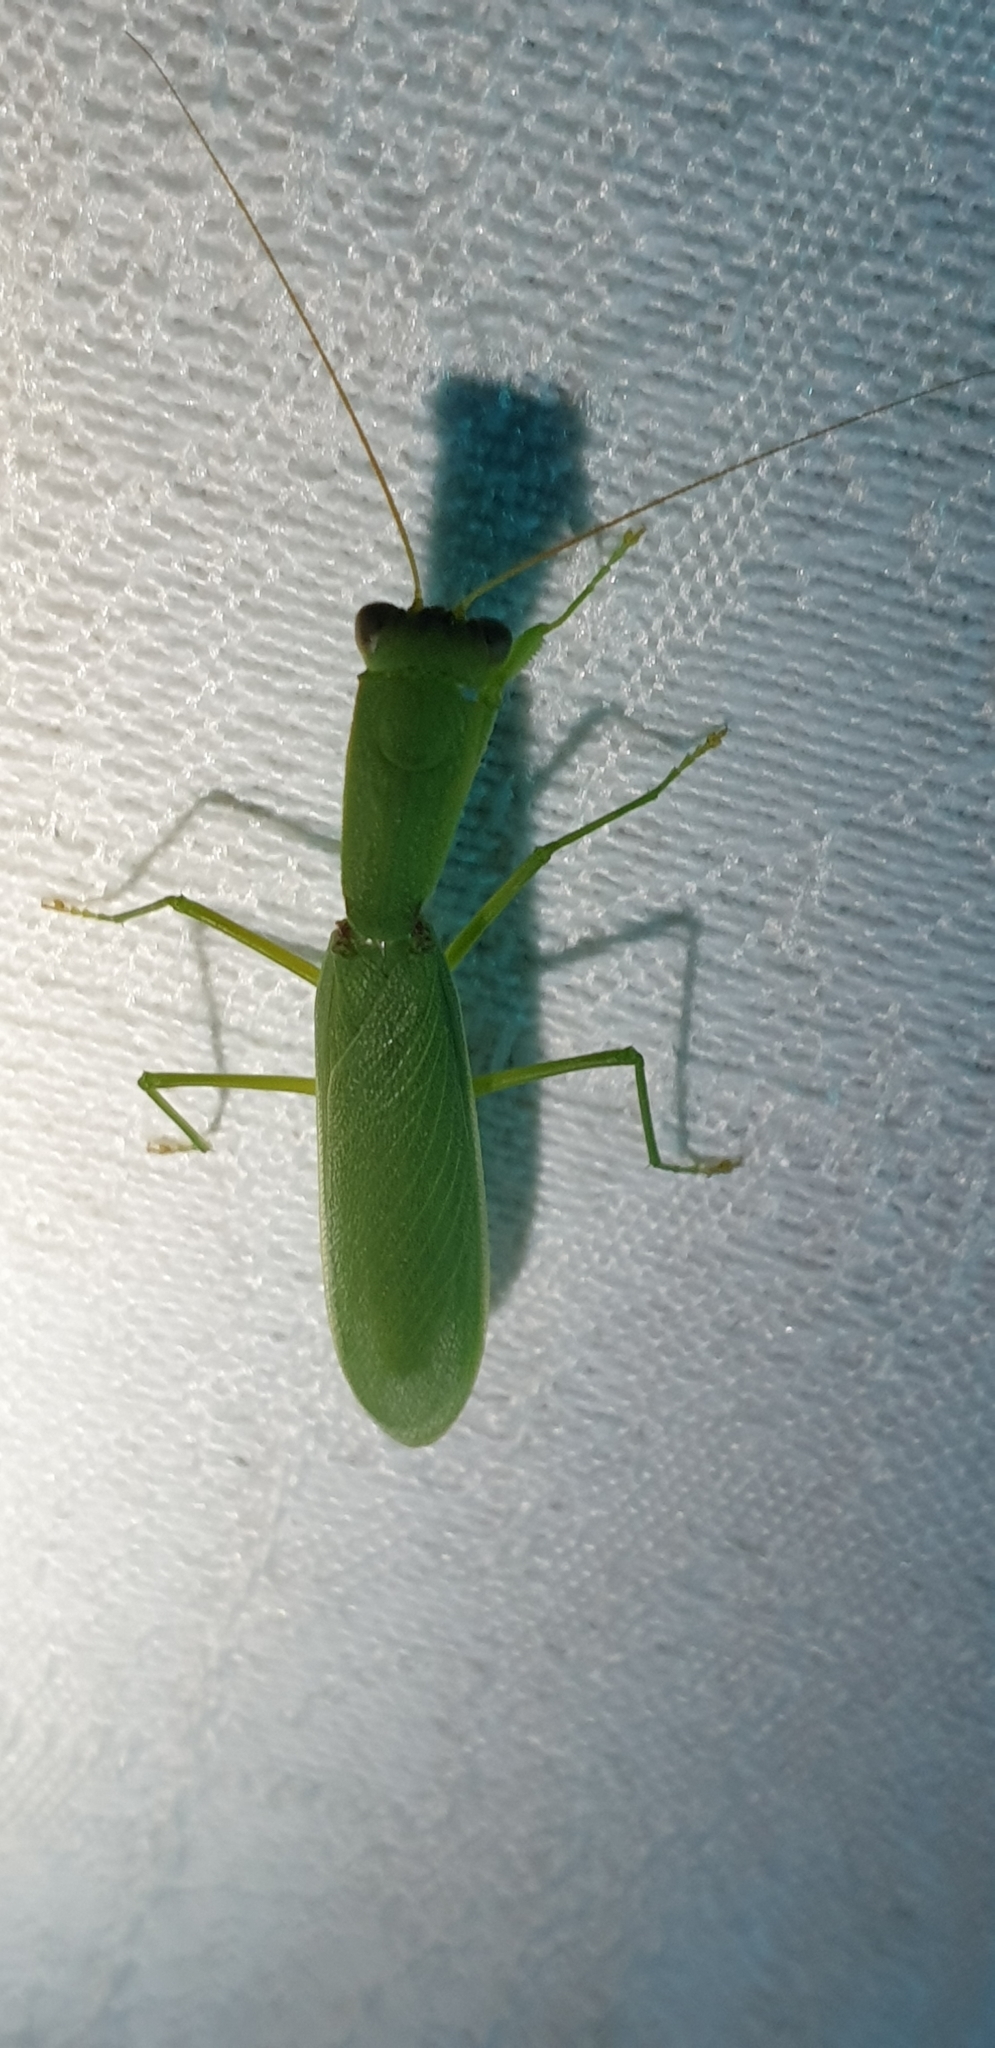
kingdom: Animalia
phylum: Arthropoda
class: Insecta
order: Mantodea
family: Mantidae
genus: Orthodera
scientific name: Orthodera ministralis
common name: Mantis
